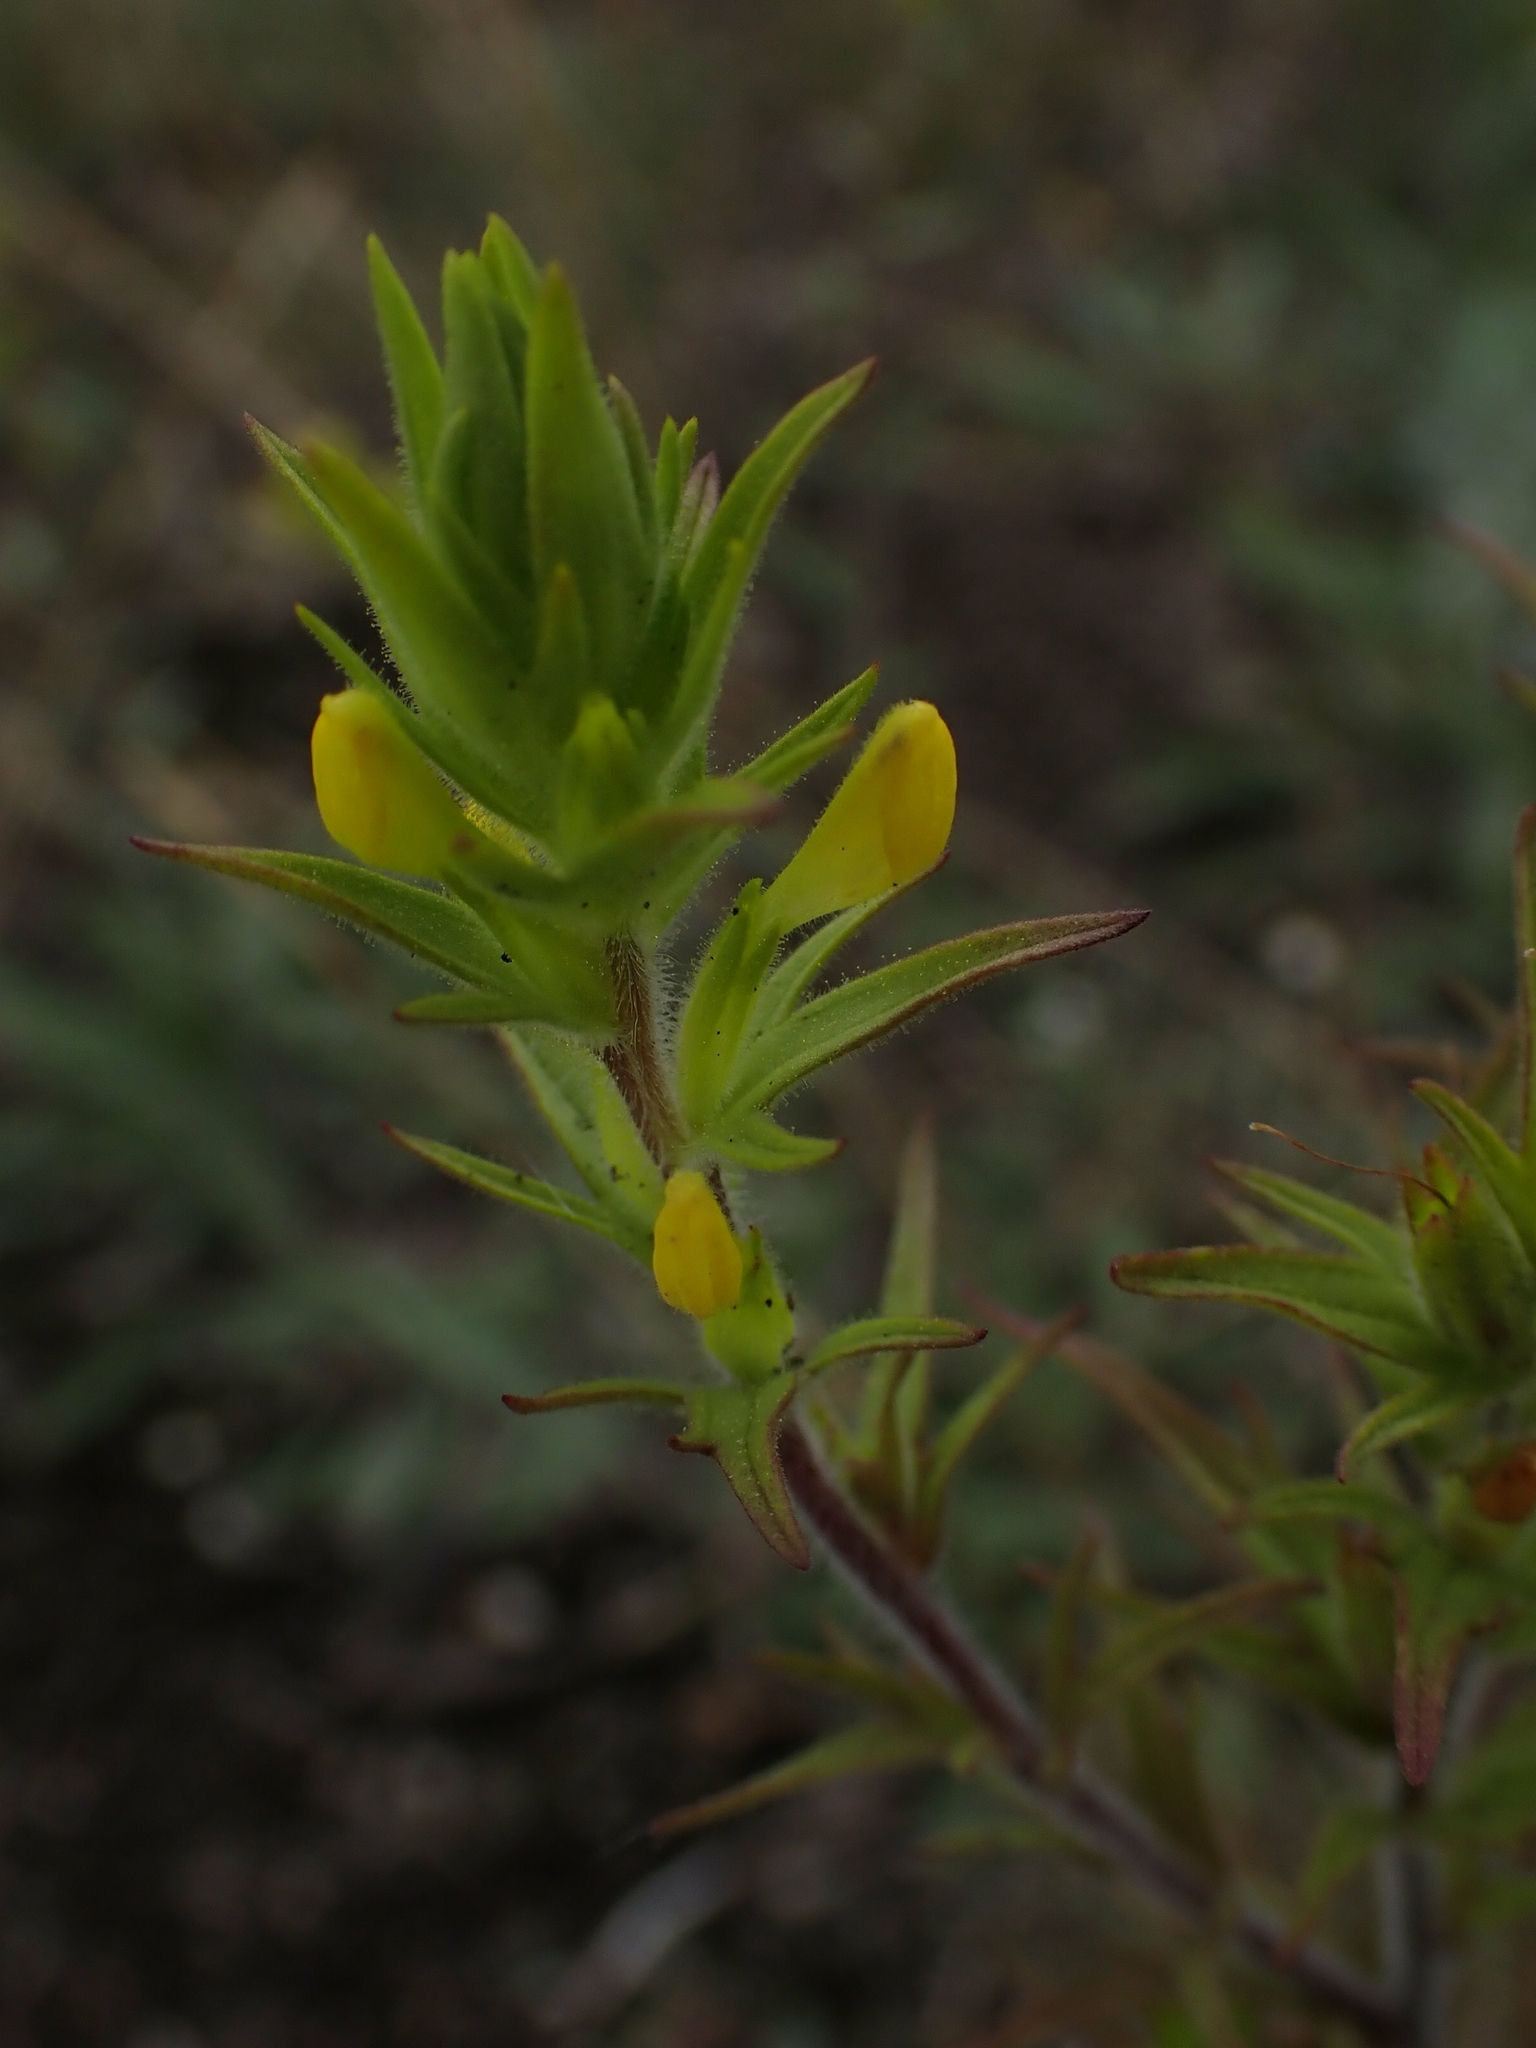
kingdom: Plantae
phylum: Tracheophyta
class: Magnoliopsida
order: Lamiales
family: Orobanchaceae
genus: Orthocarpus
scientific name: Orthocarpus luteus
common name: Golden-tongue owl's-clover
